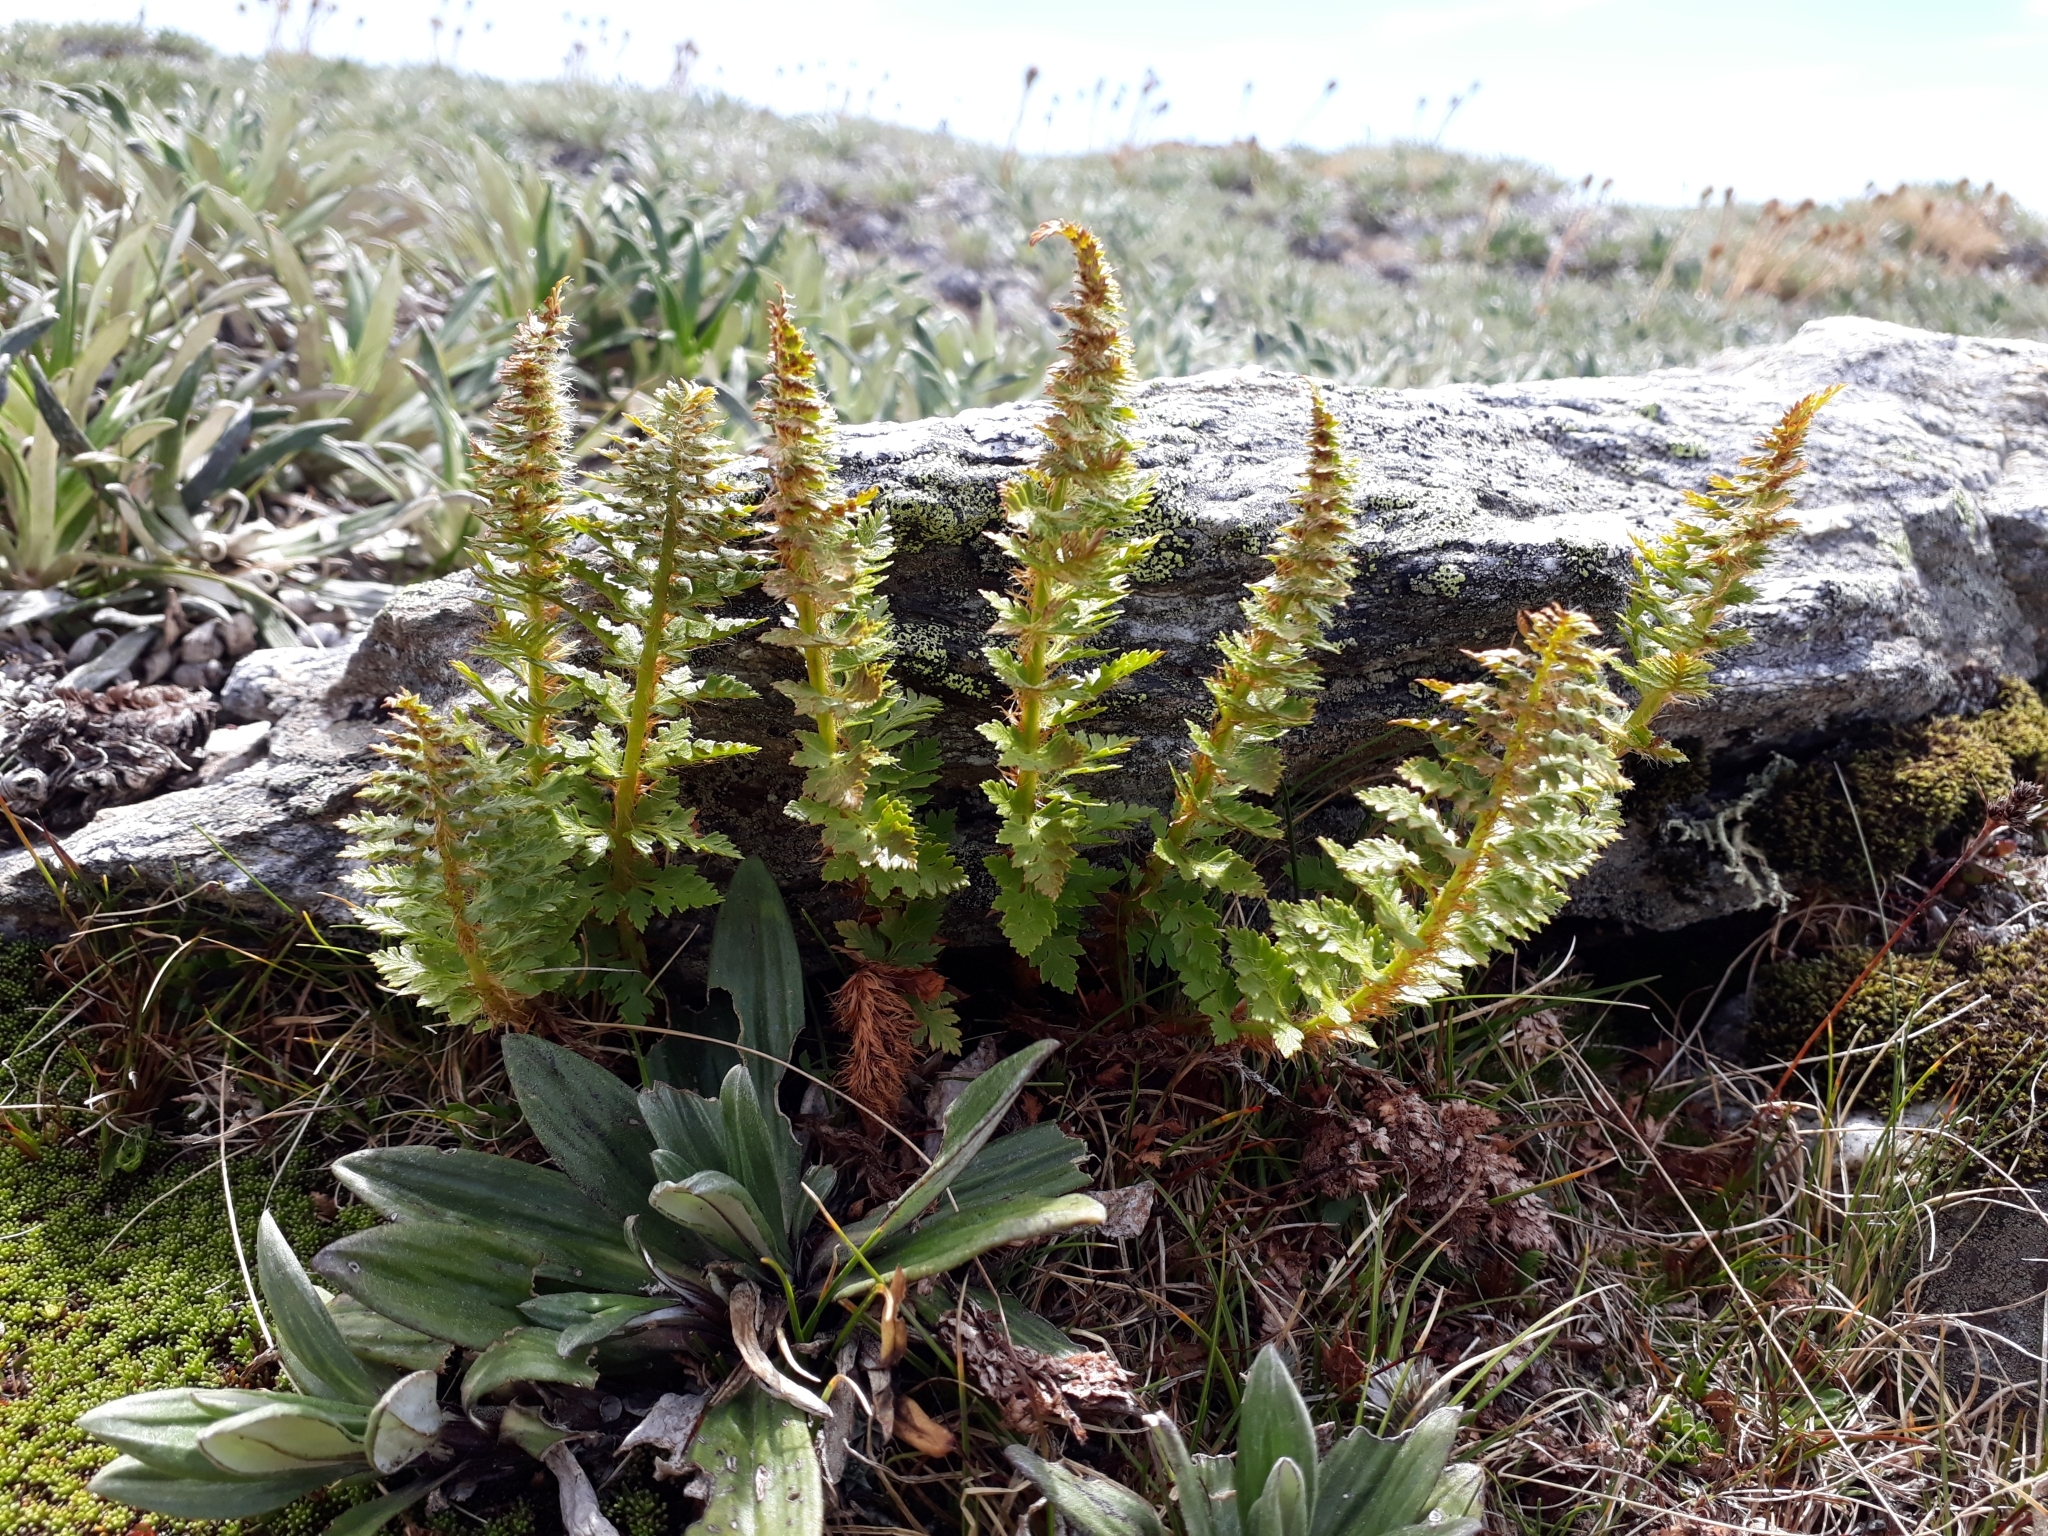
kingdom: Plantae
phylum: Tracheophyta
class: Polypodiopsida
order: Polypodiales
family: Dryopteridaceae
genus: Polystichum
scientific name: Polystichum cystostegia
